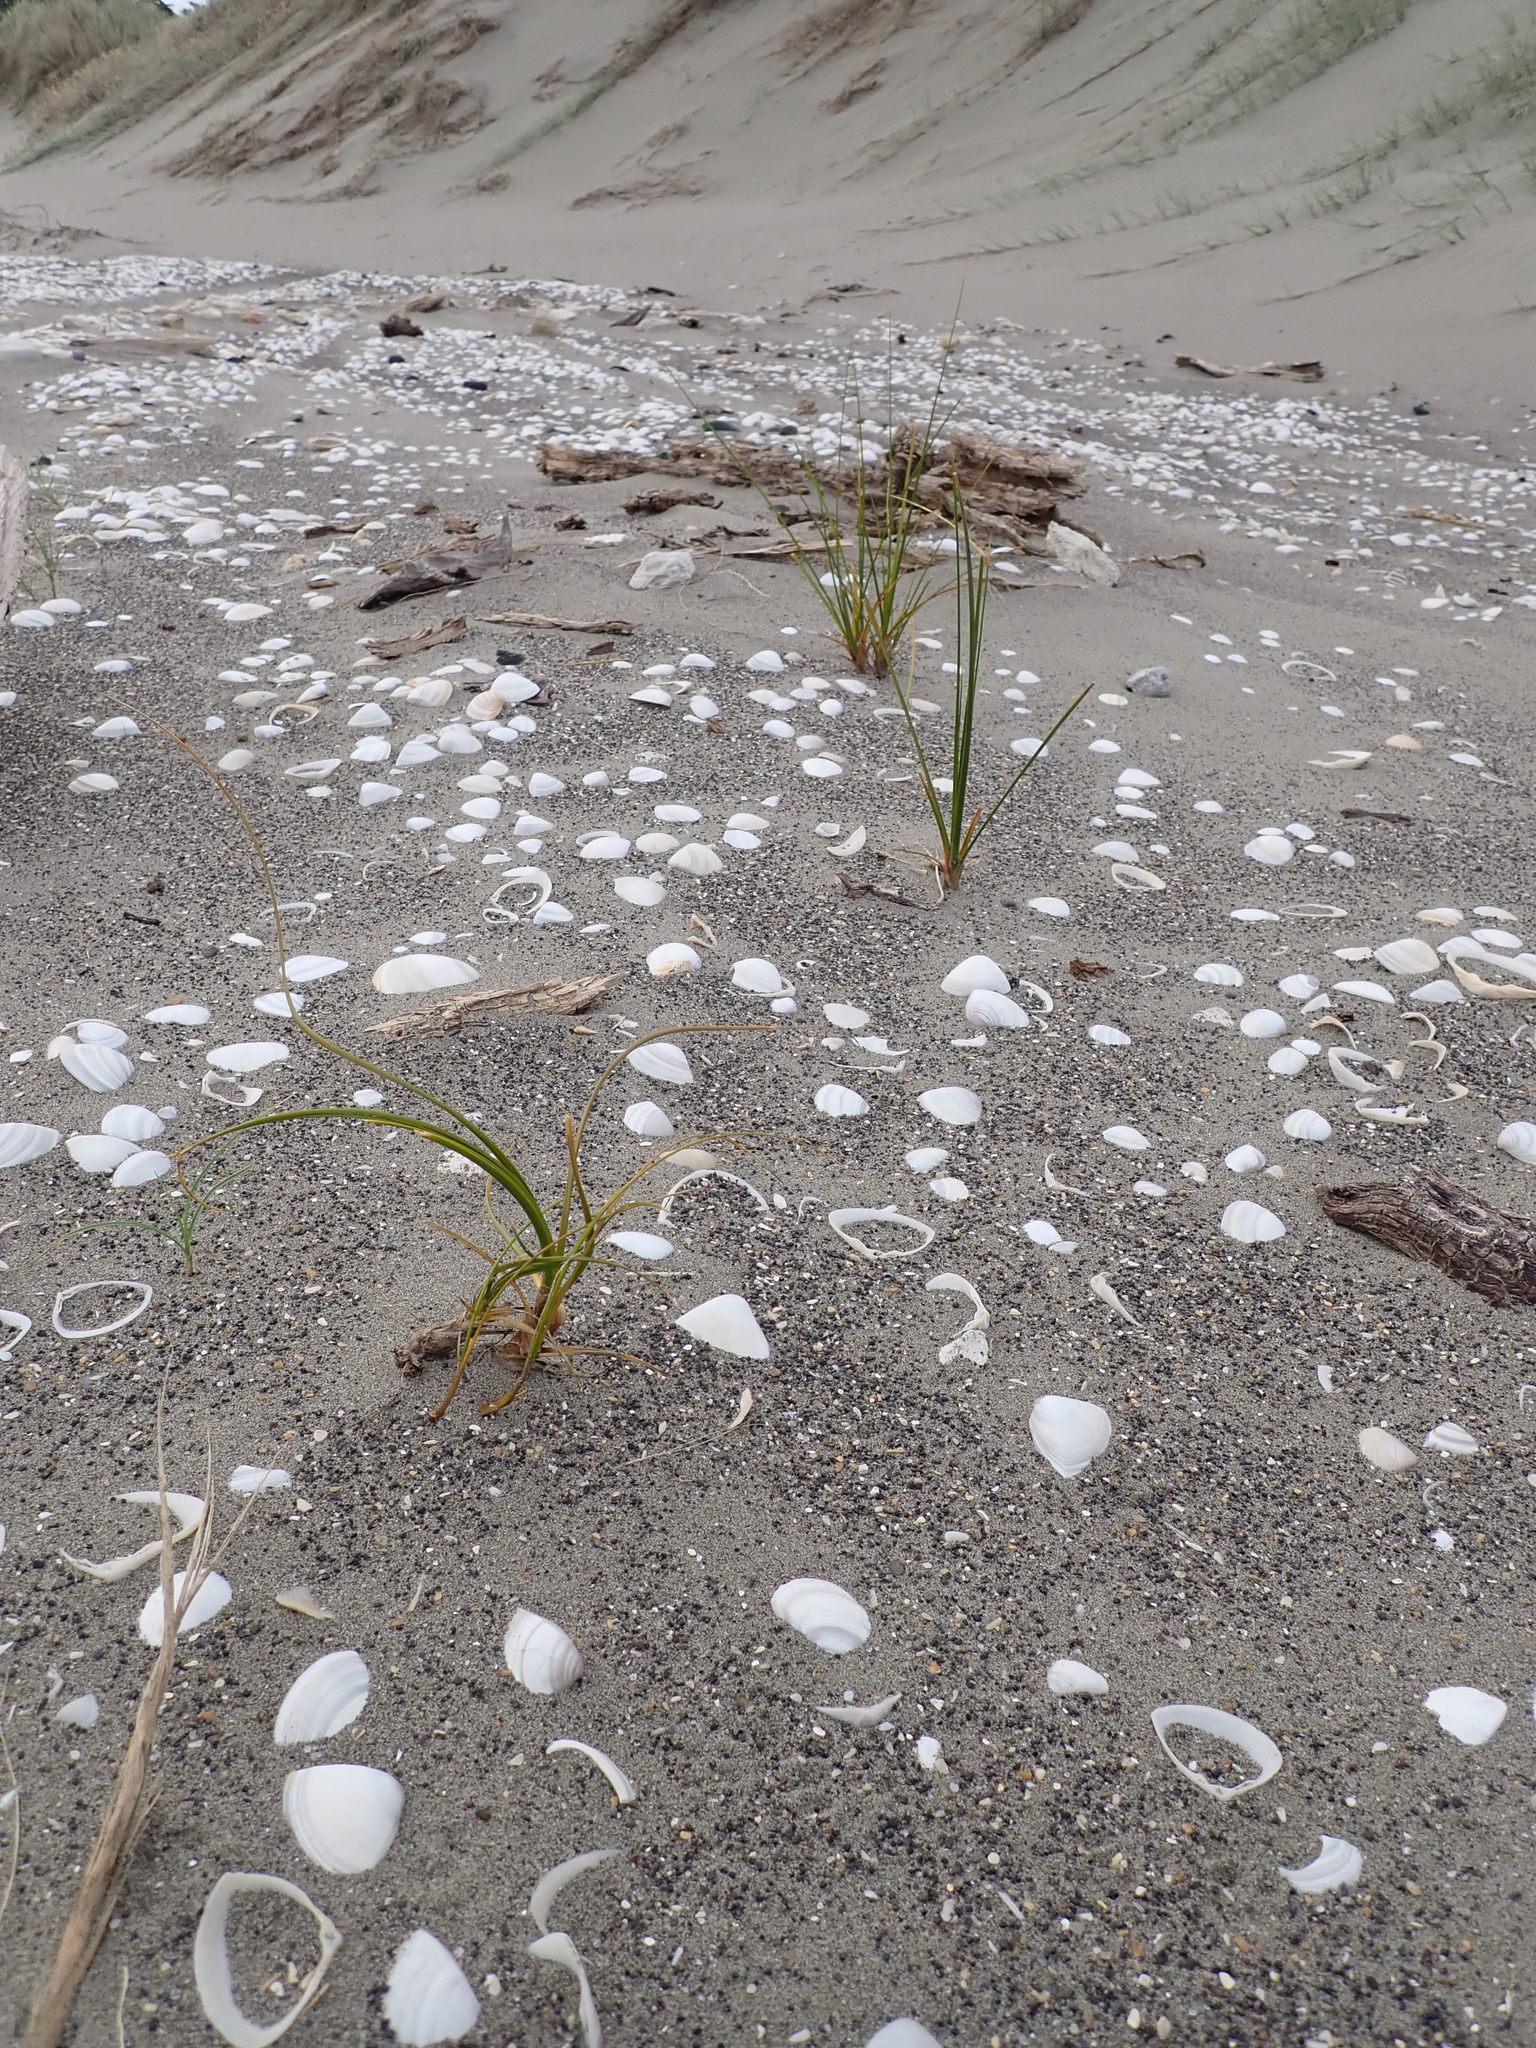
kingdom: Plantae
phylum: Tracheophyta
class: Liliopsida
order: Poales
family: Cyperaceae
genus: Ficinia
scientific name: Ficinia spiralis
